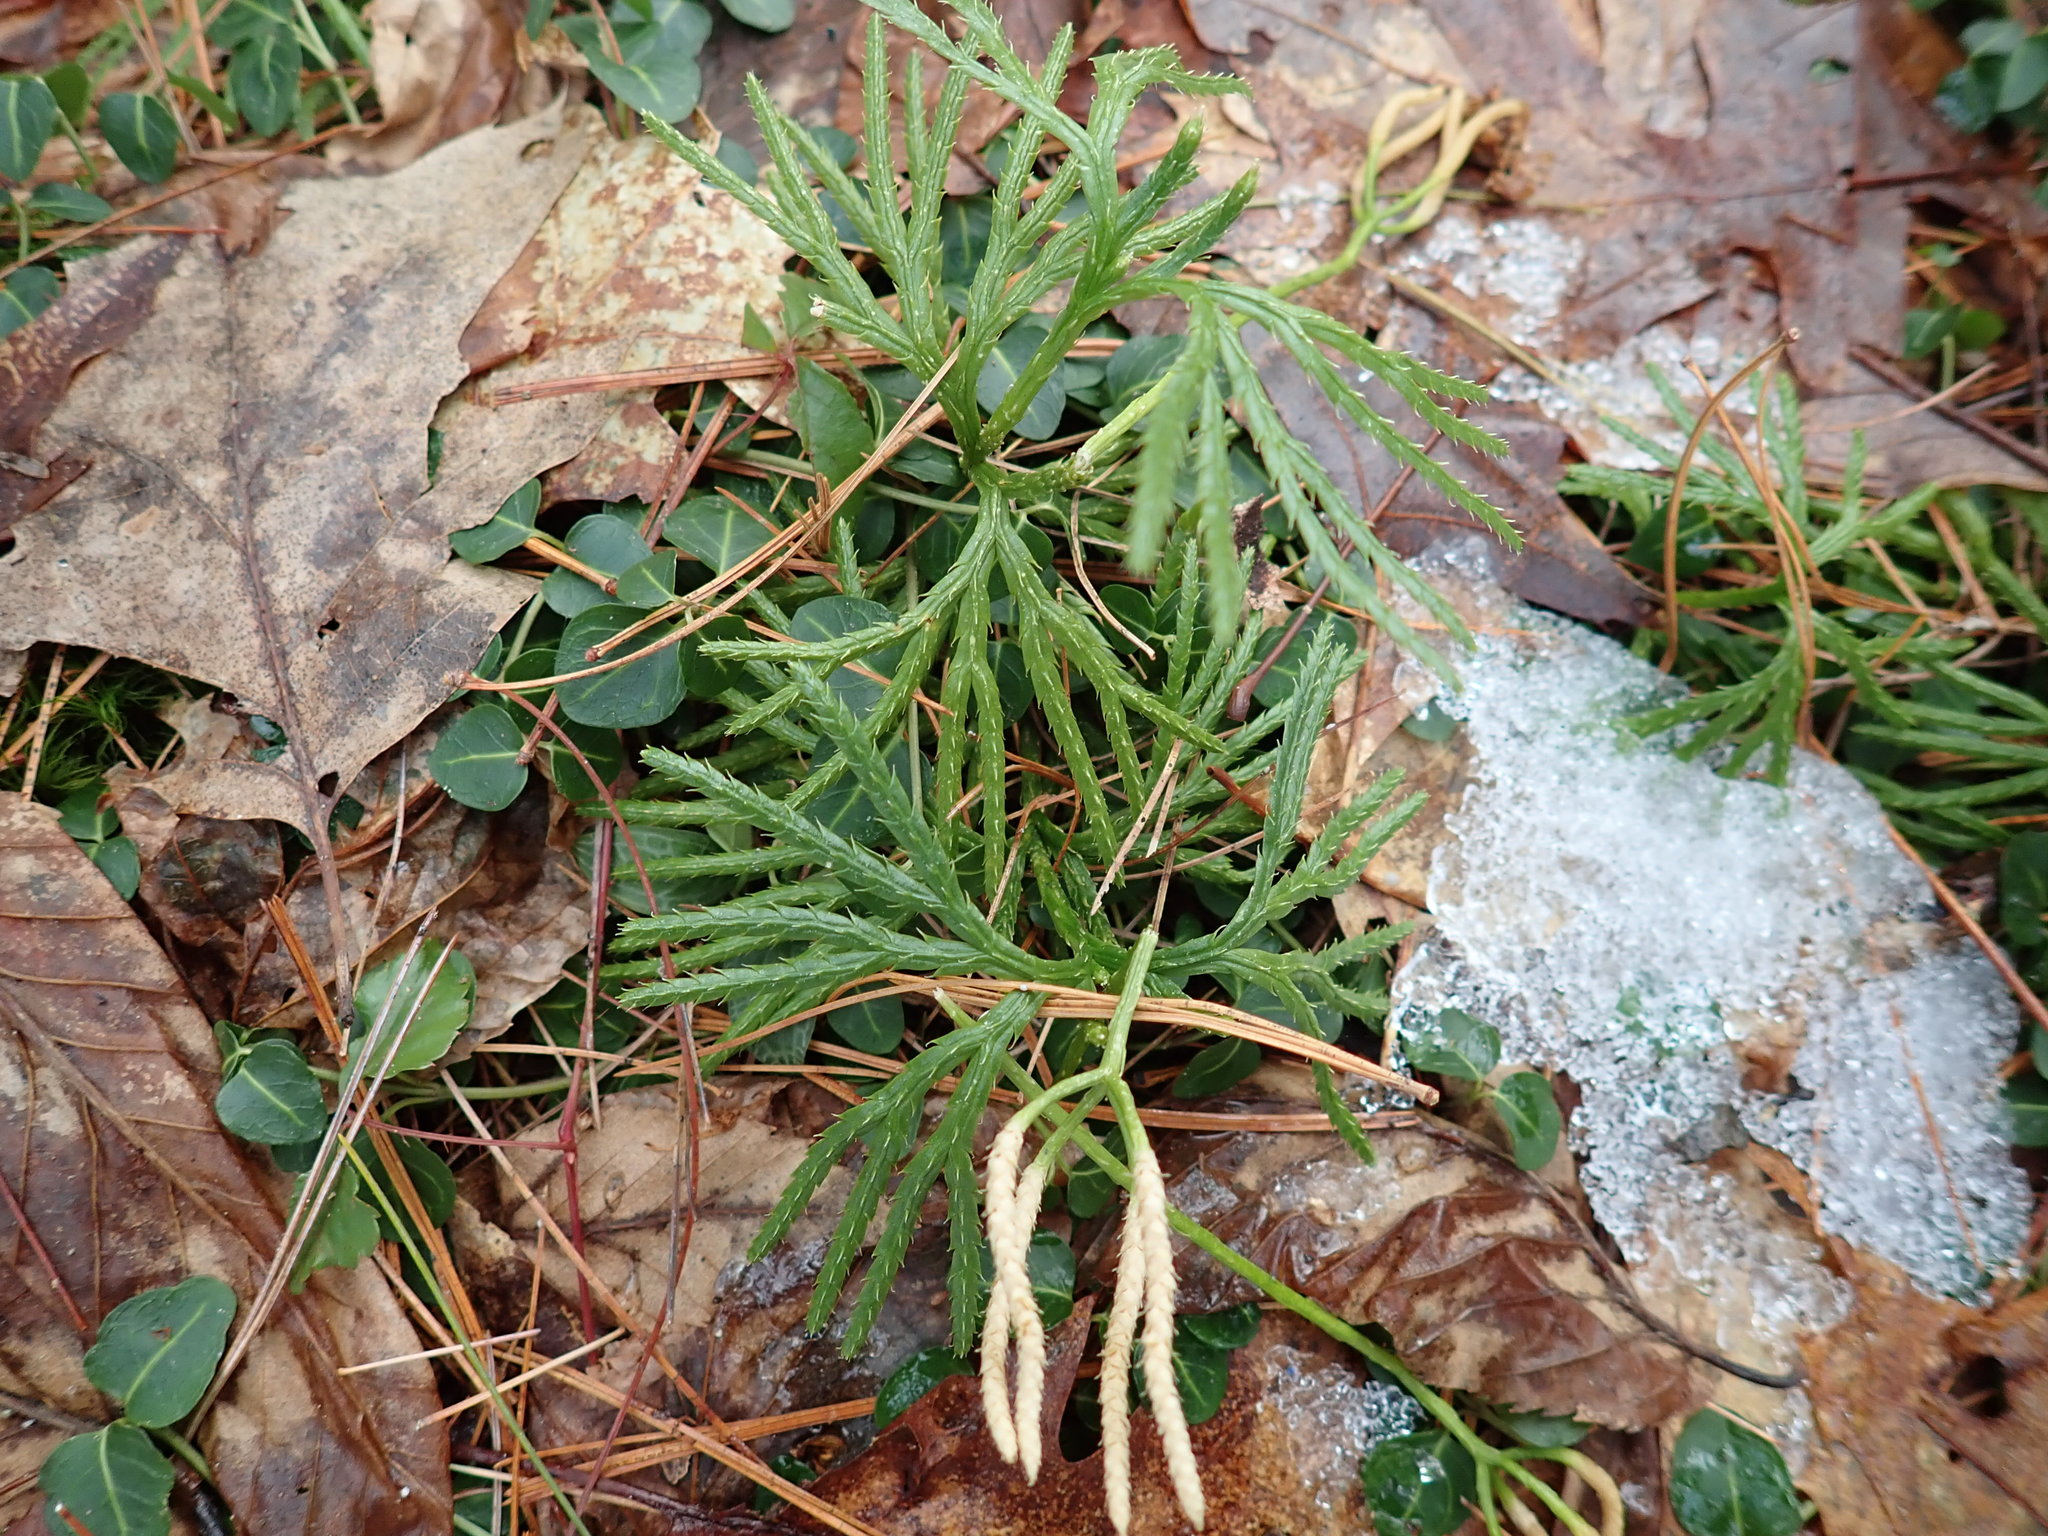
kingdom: Plantae
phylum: Tracheophyta
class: Lycopodiopsida
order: Lycopodiales
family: Lycopodiaceae
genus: Diphasiastrum
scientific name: Diphasiastrum digitatum
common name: Southern running-pine
